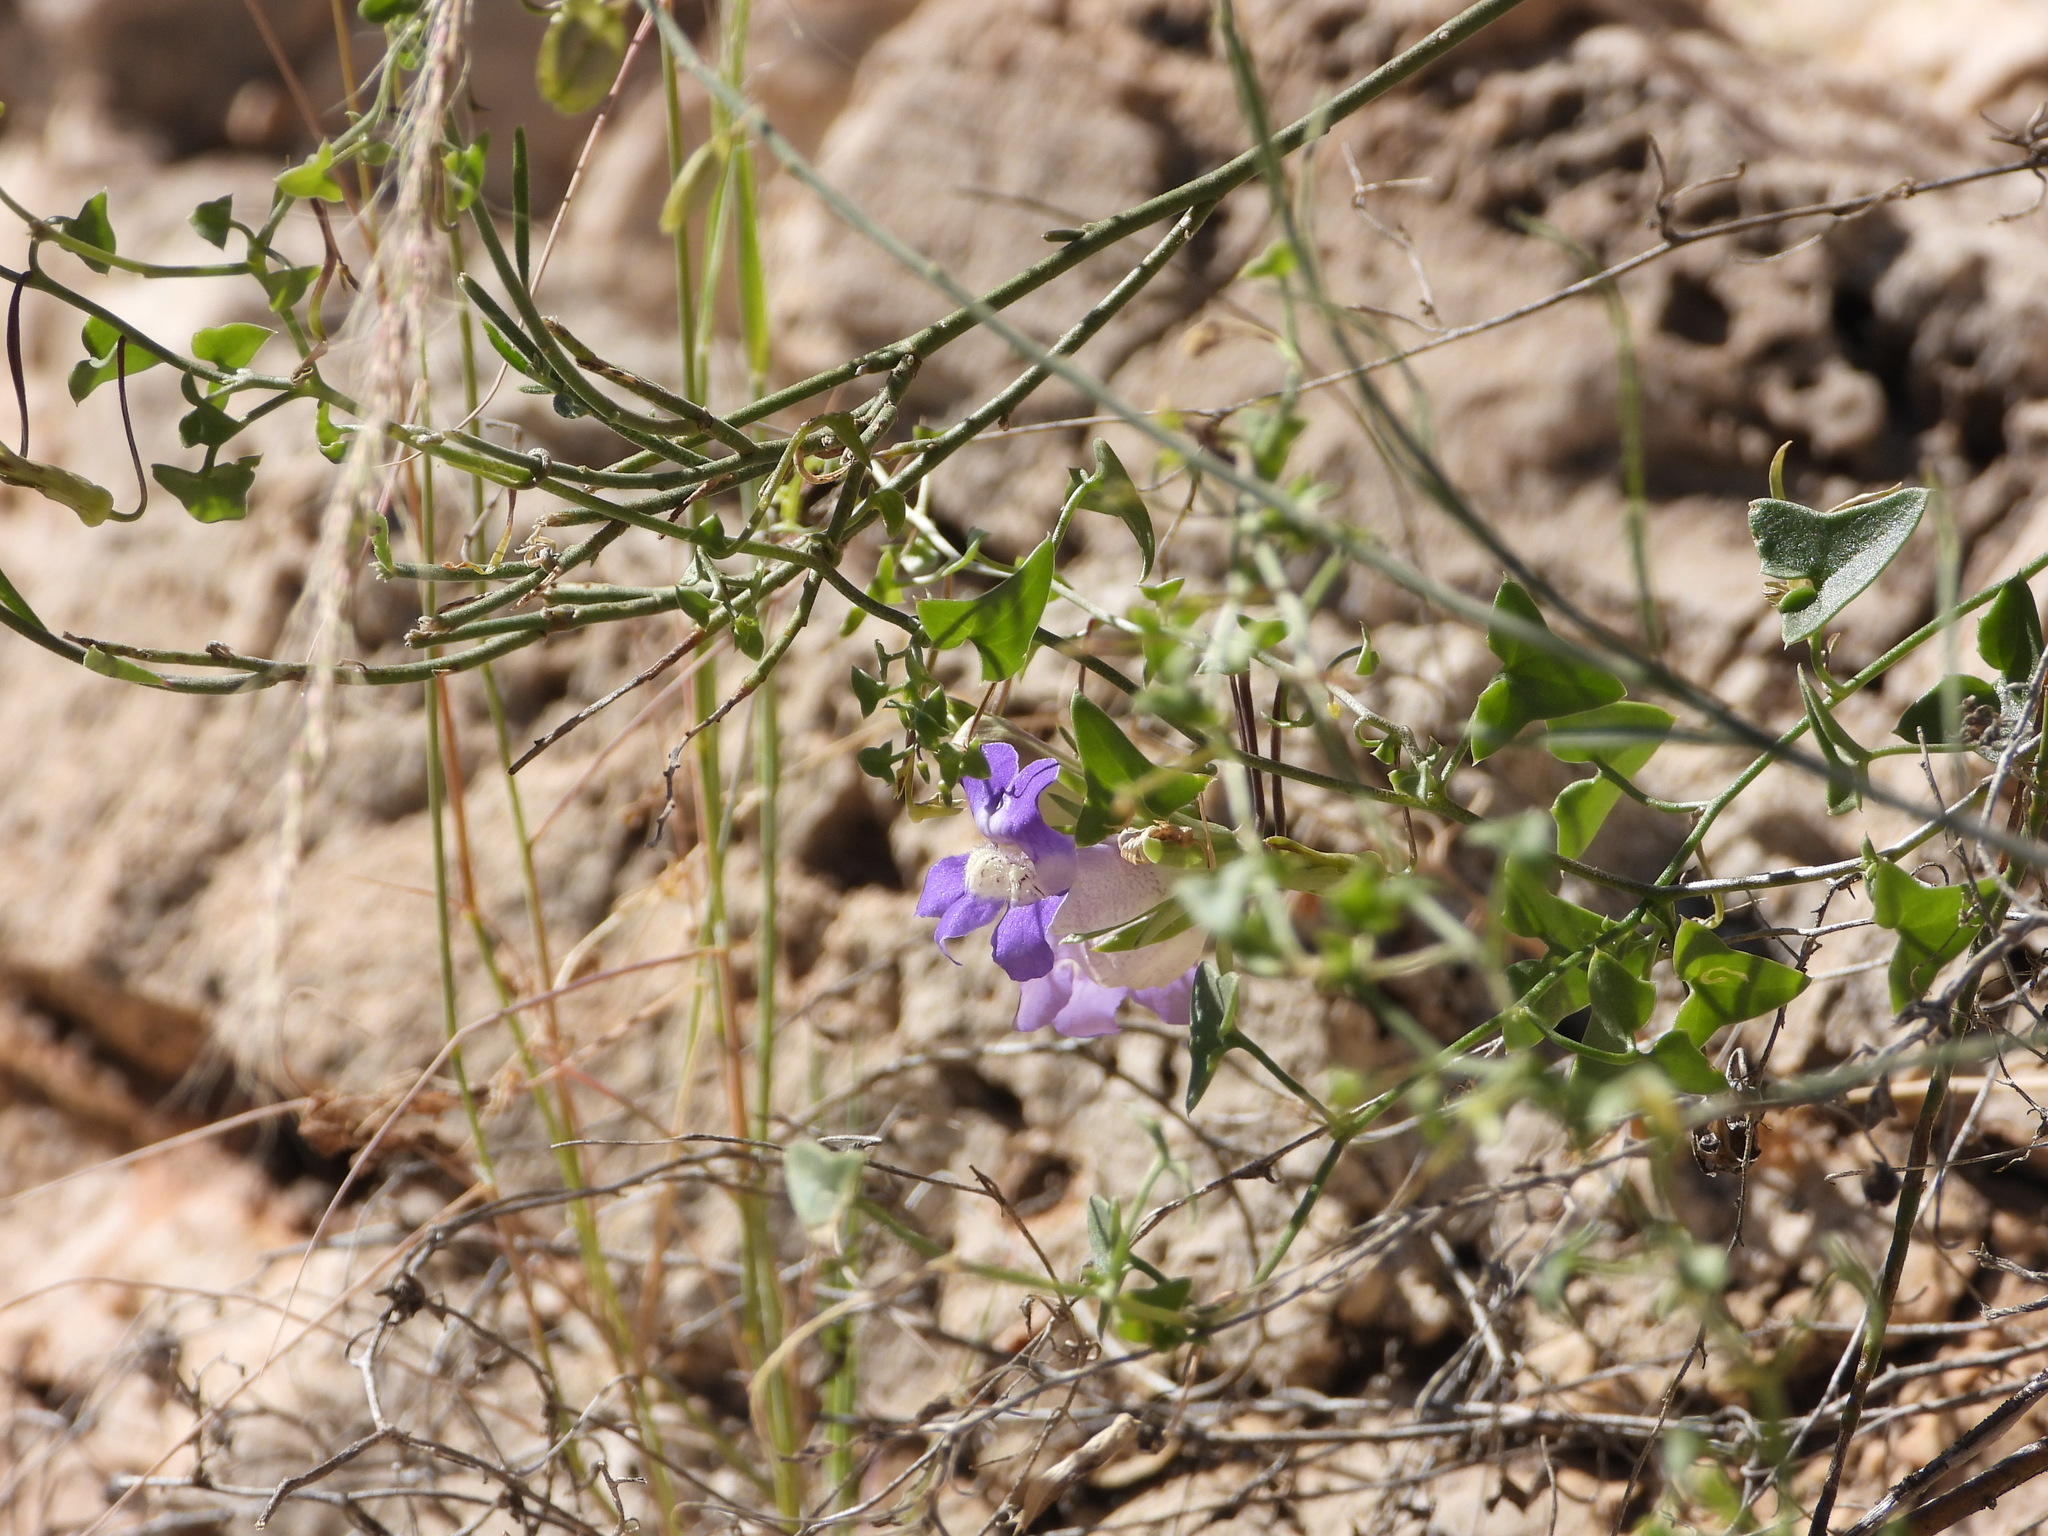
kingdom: Plantae
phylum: Tracheophyta
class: Magnoliopsida
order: Lamiales
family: Plantaginaceae
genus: Maurandella
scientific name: Maurandella antirrhiniflora
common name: Violet twining-snapdragon
